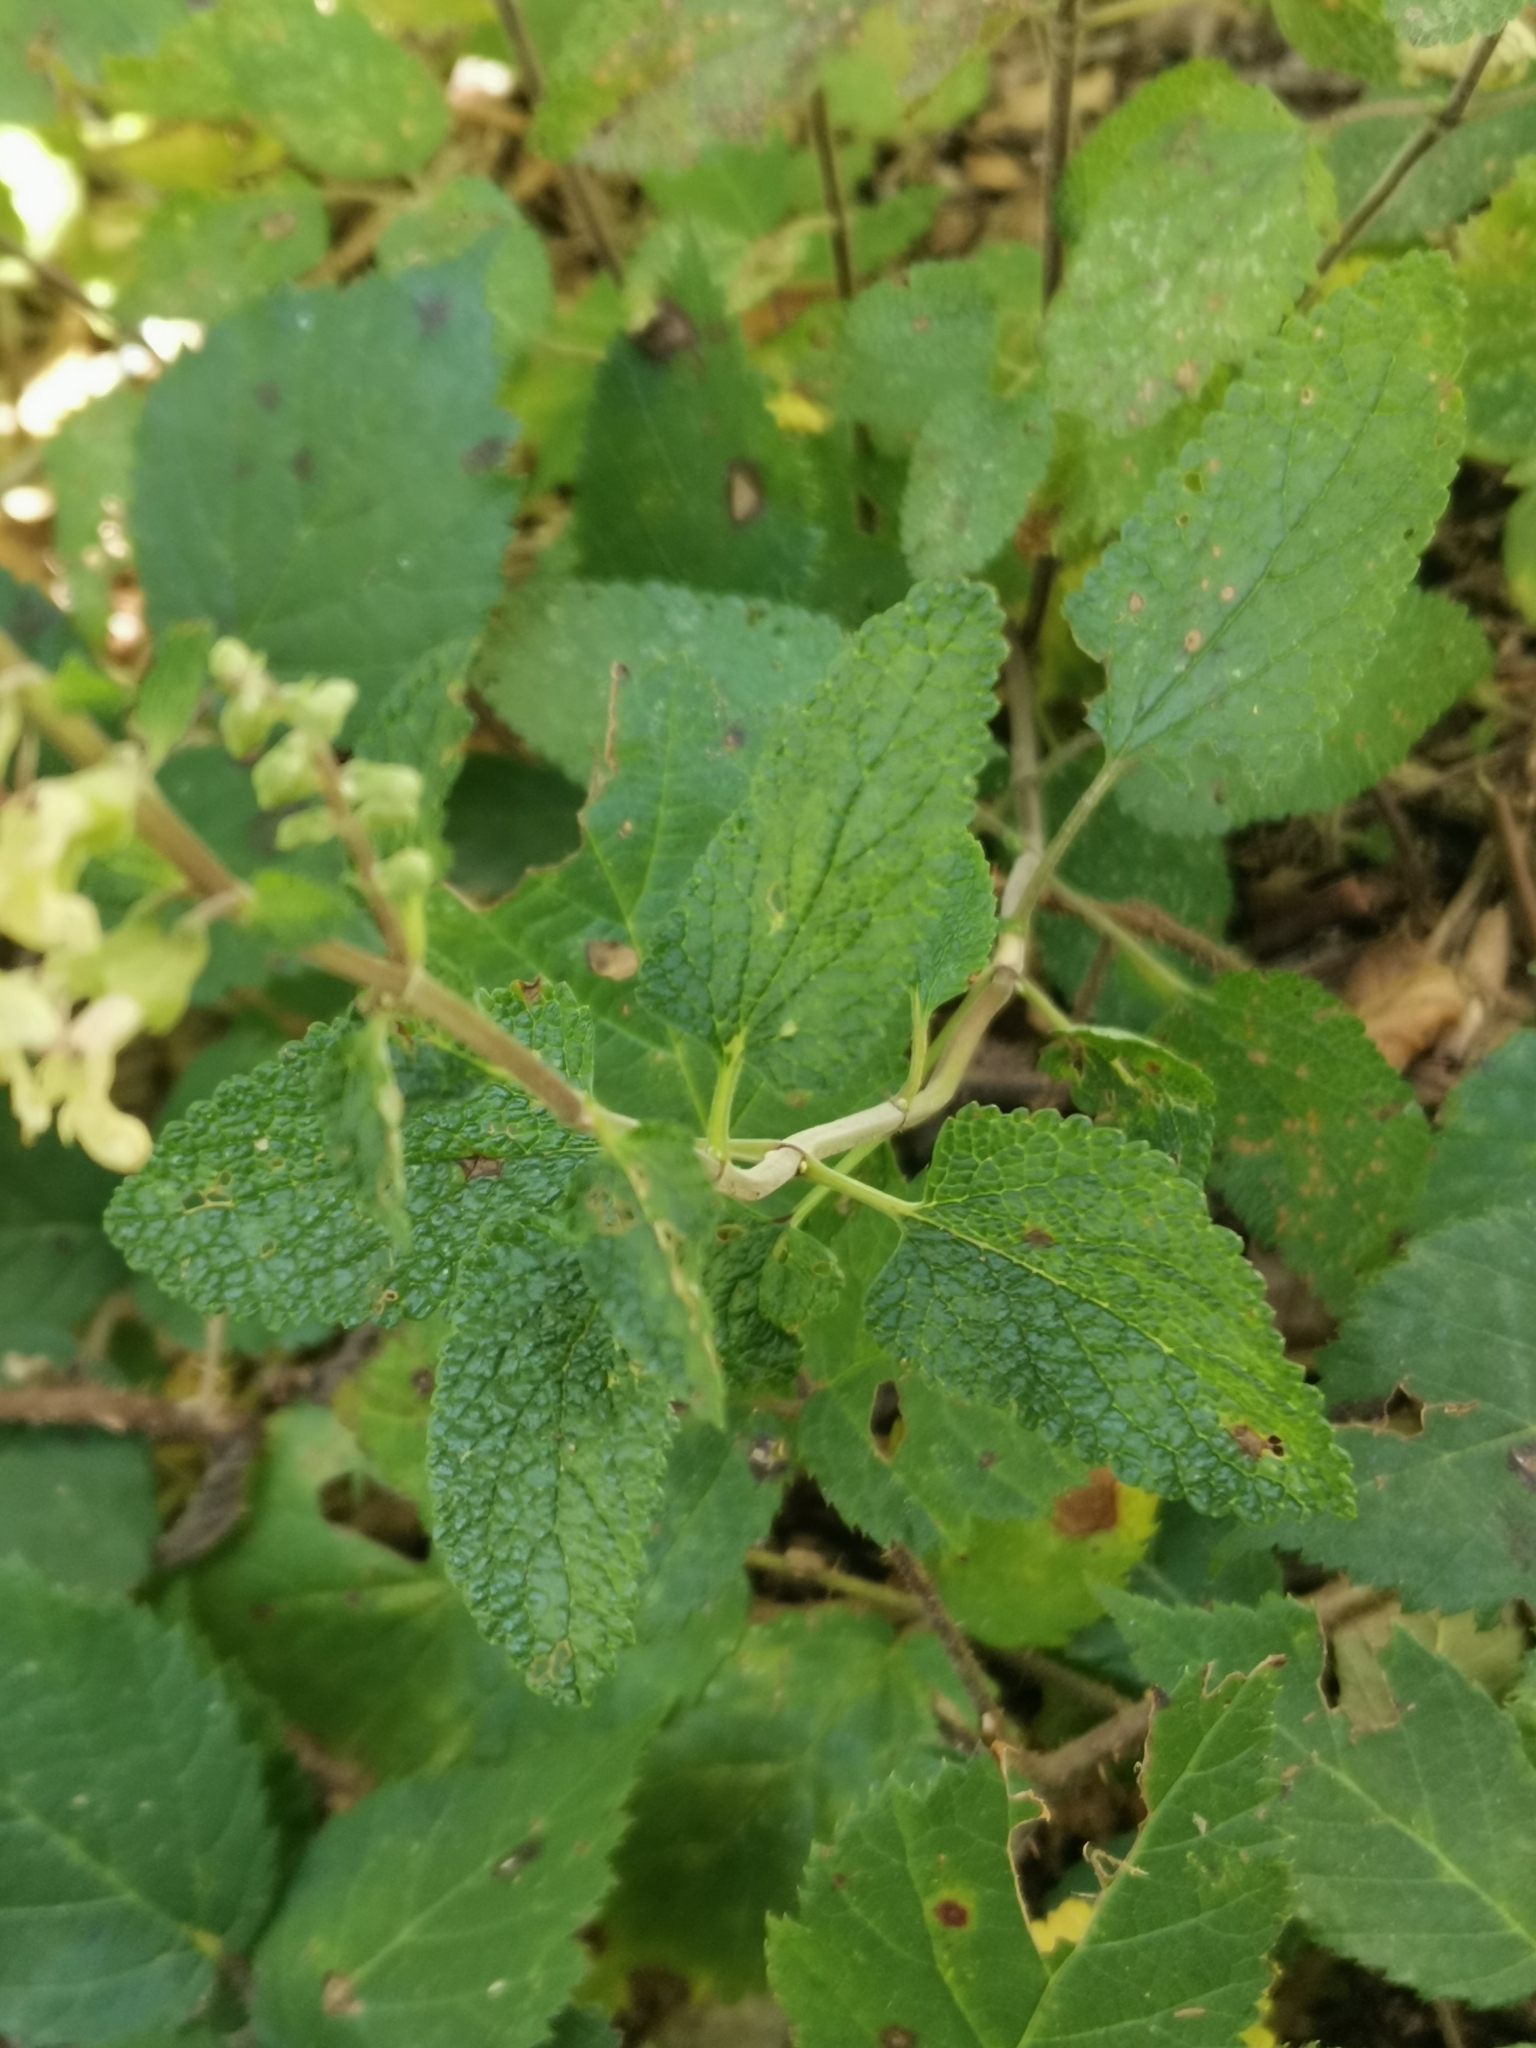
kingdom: Plantae
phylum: Tracheophyta
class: Magnoliopsida
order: Lamiales
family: Lamiaceae
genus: Teucrium
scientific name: Teucrium scorodonia
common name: Woodland germander
